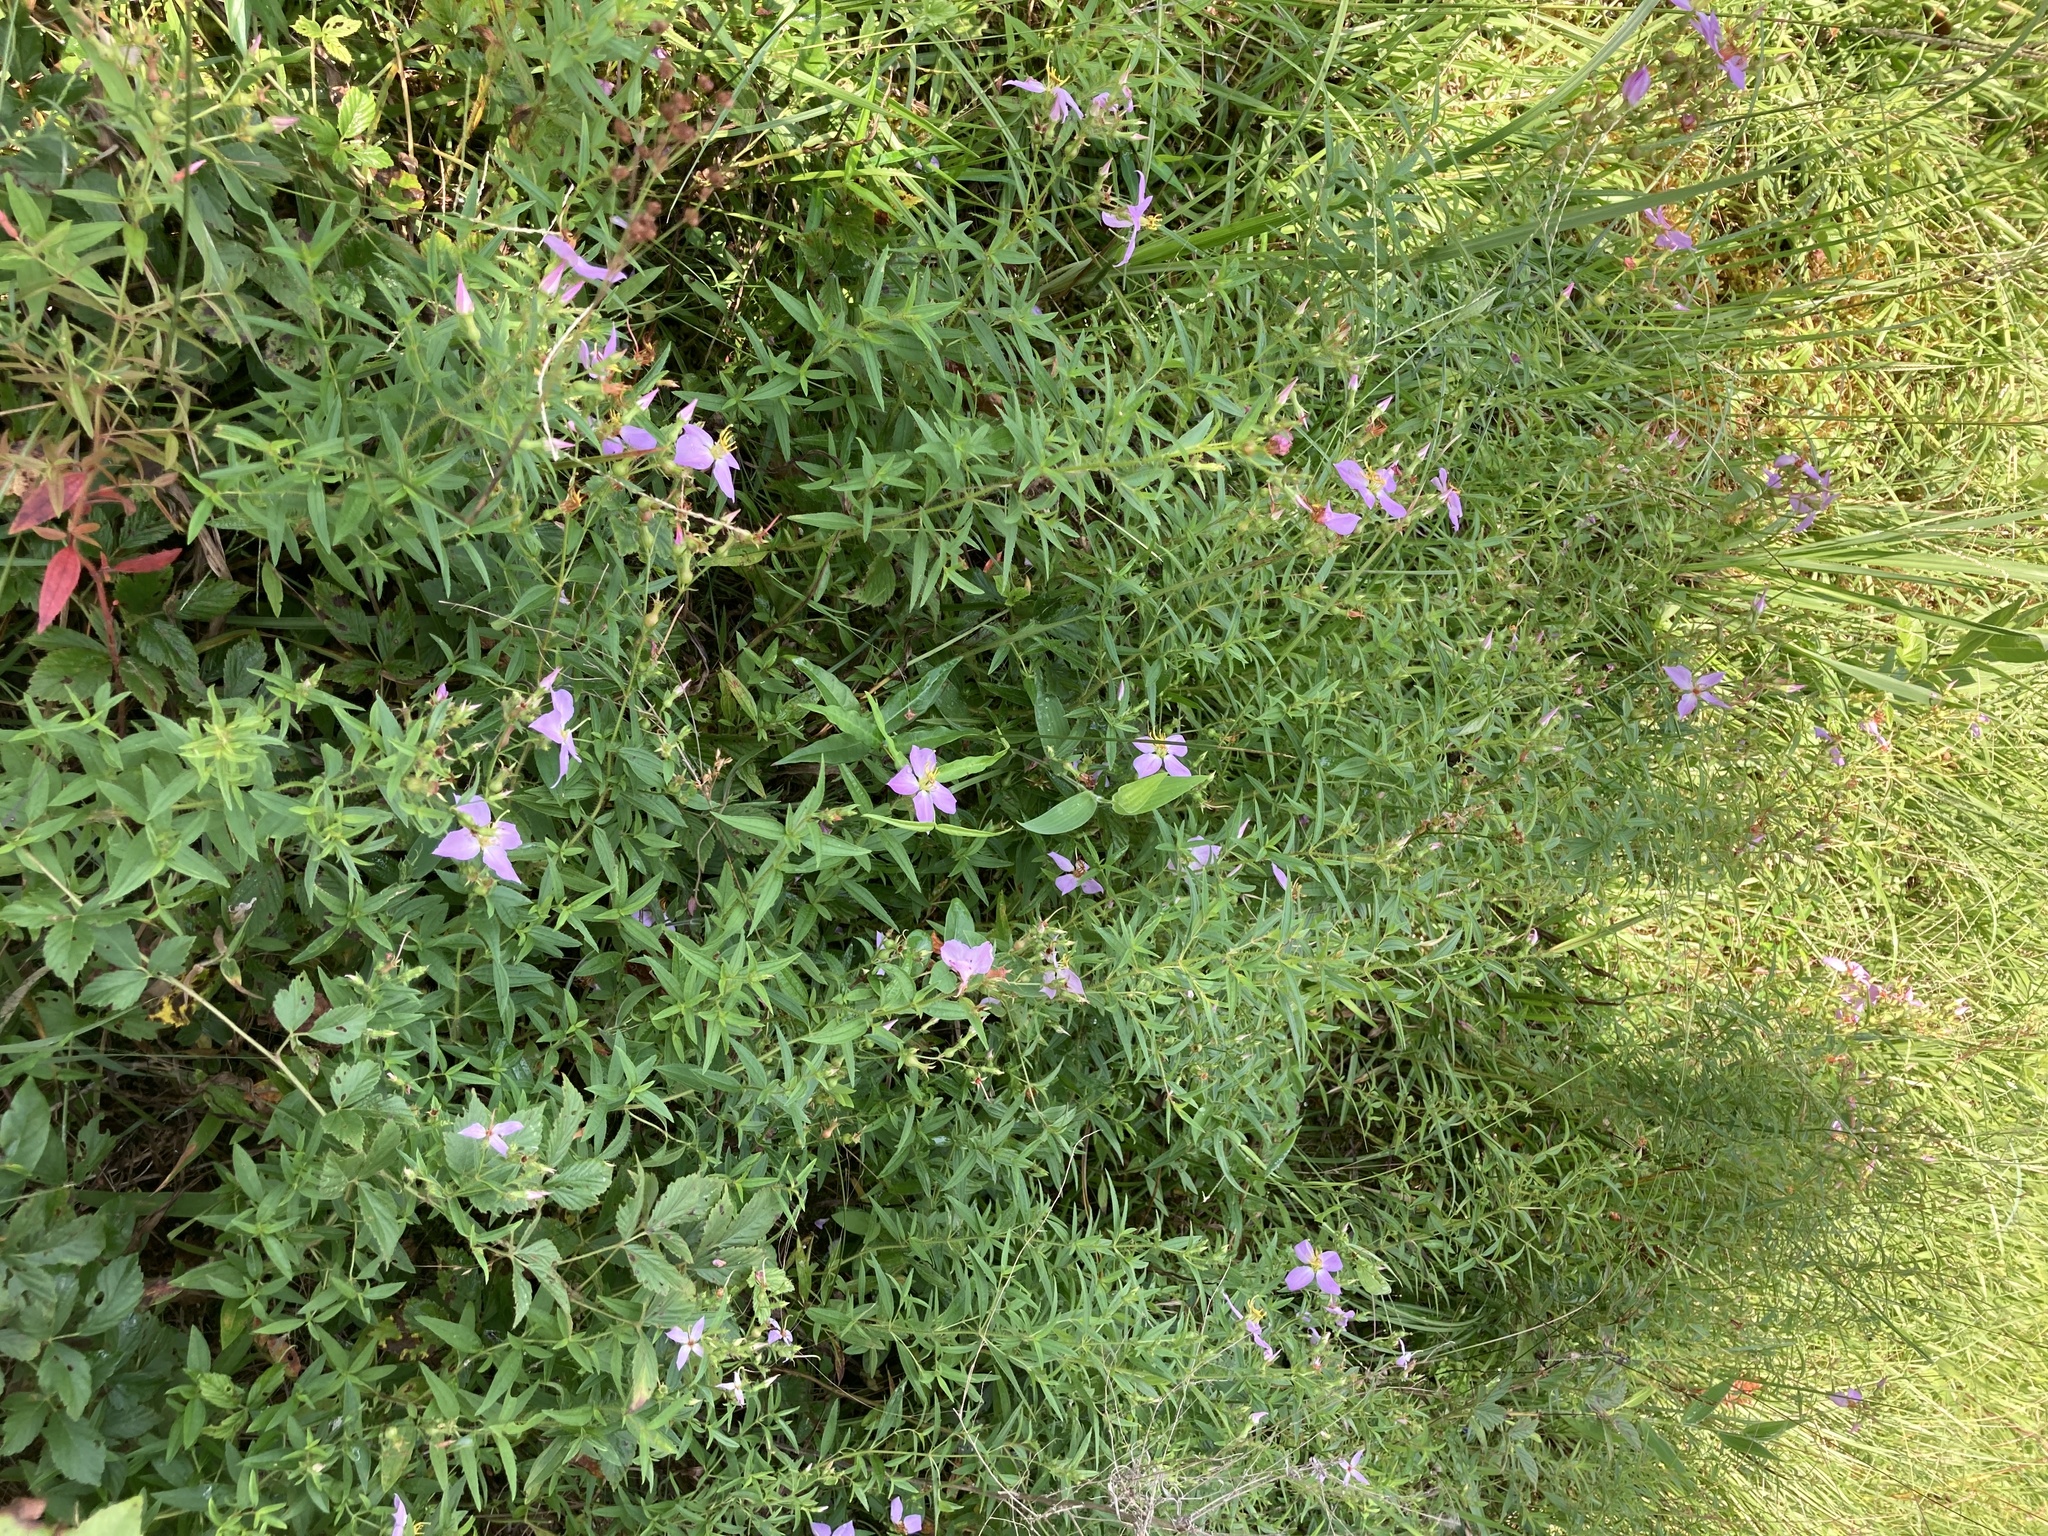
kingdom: Plantae
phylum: Tracheophyta
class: Magnoliopsida
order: Myrtales
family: Melastomataceae
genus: Rhexia
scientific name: Rhexia mariana
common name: Dull meadow-pitcher
